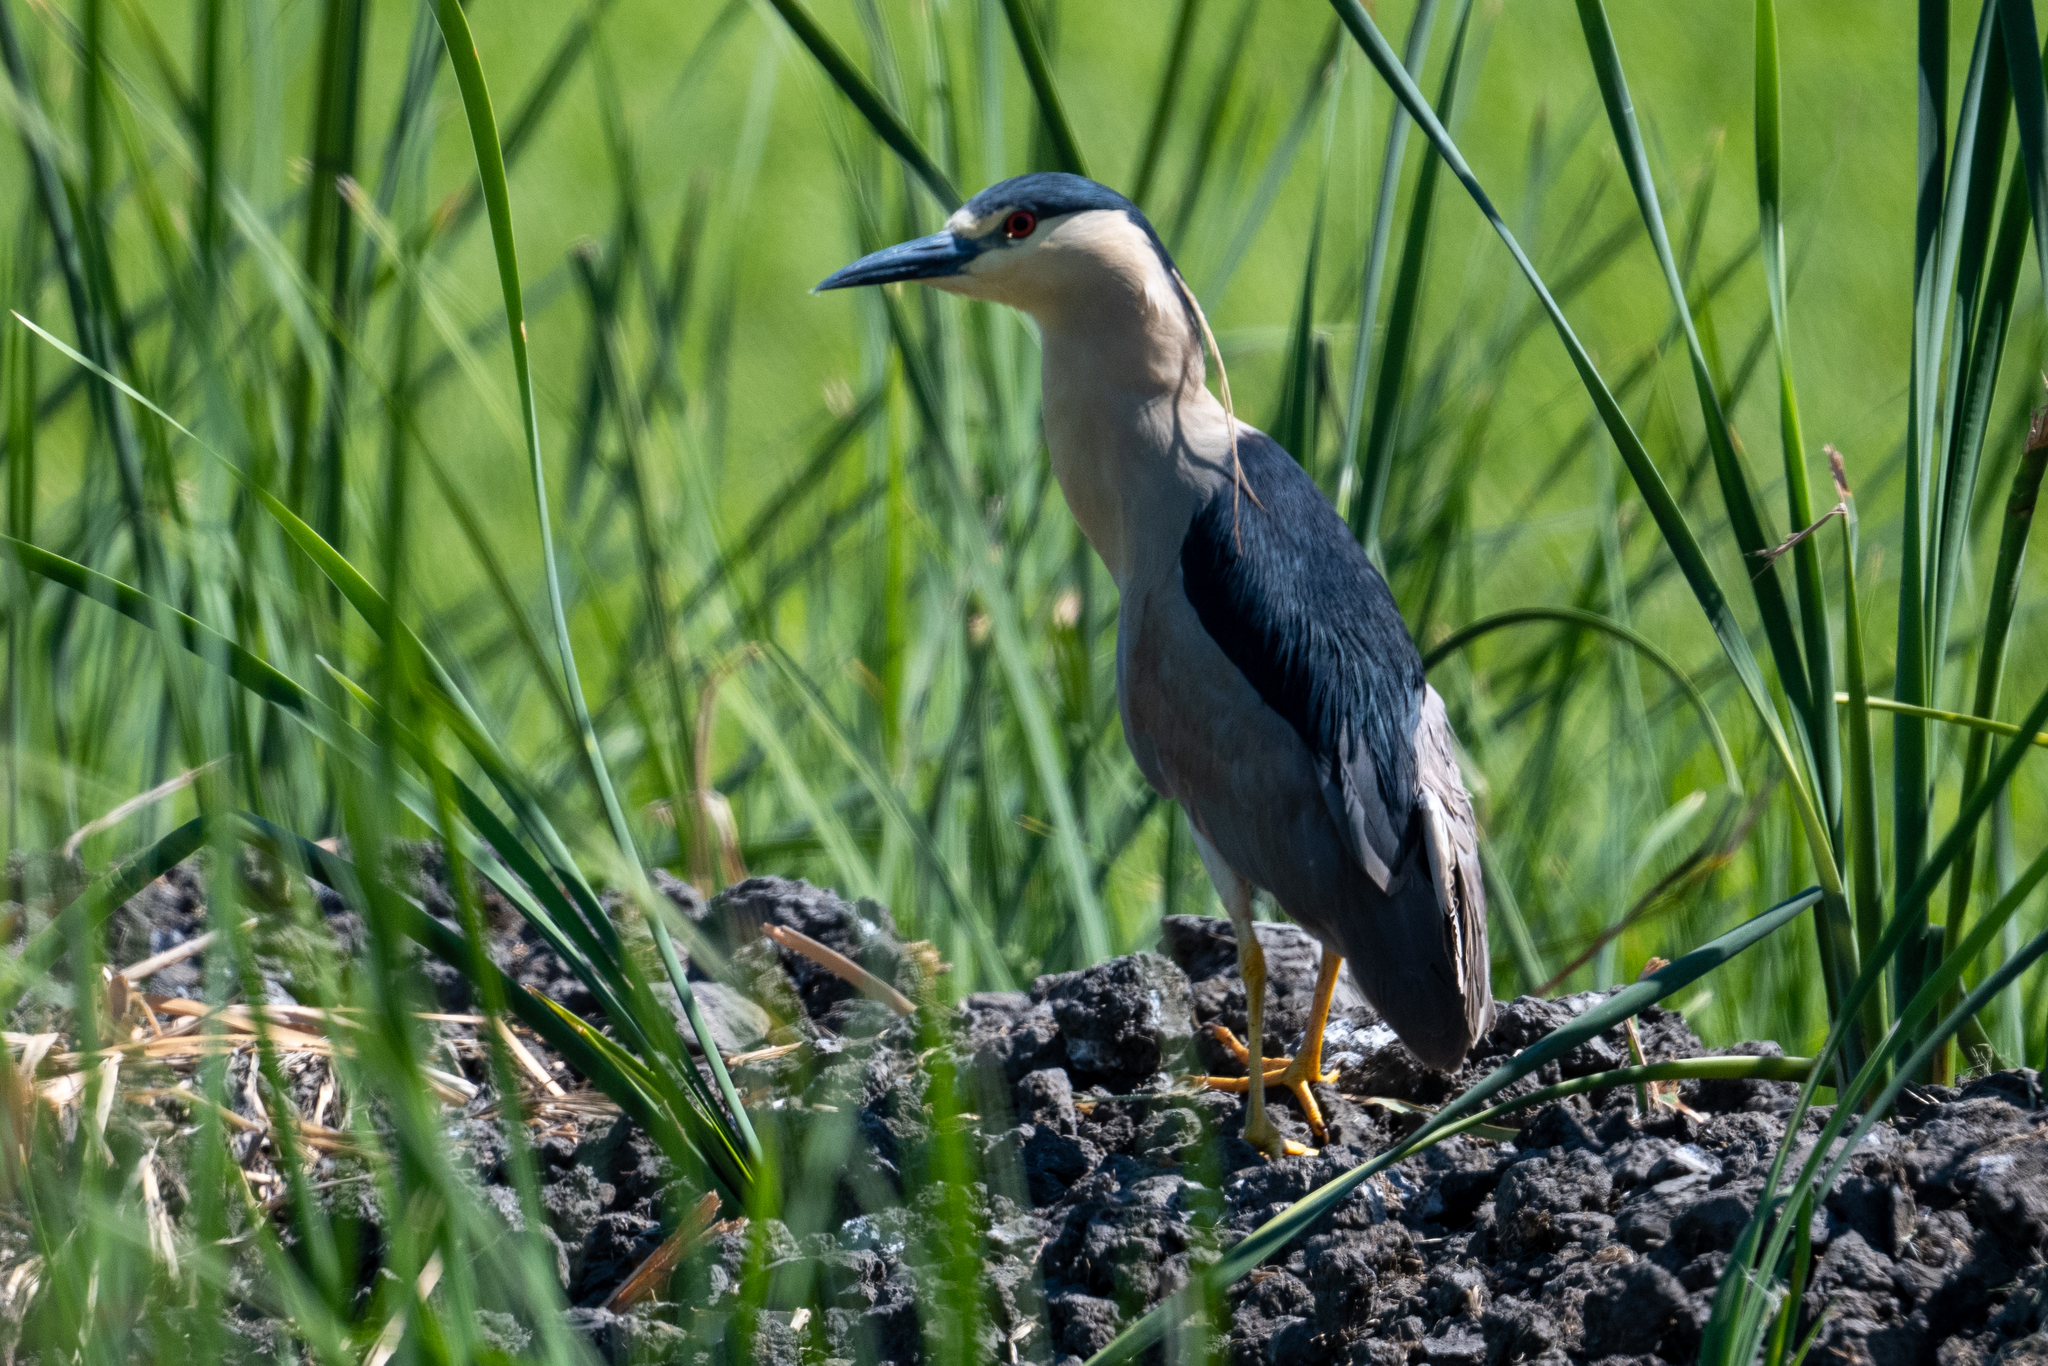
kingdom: Animalia
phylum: Chordata
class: Aves
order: Pelecaniformes
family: Ardeidae
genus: Nycticorax
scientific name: Nycticorax nycticorax
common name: Black-crowned night heron
